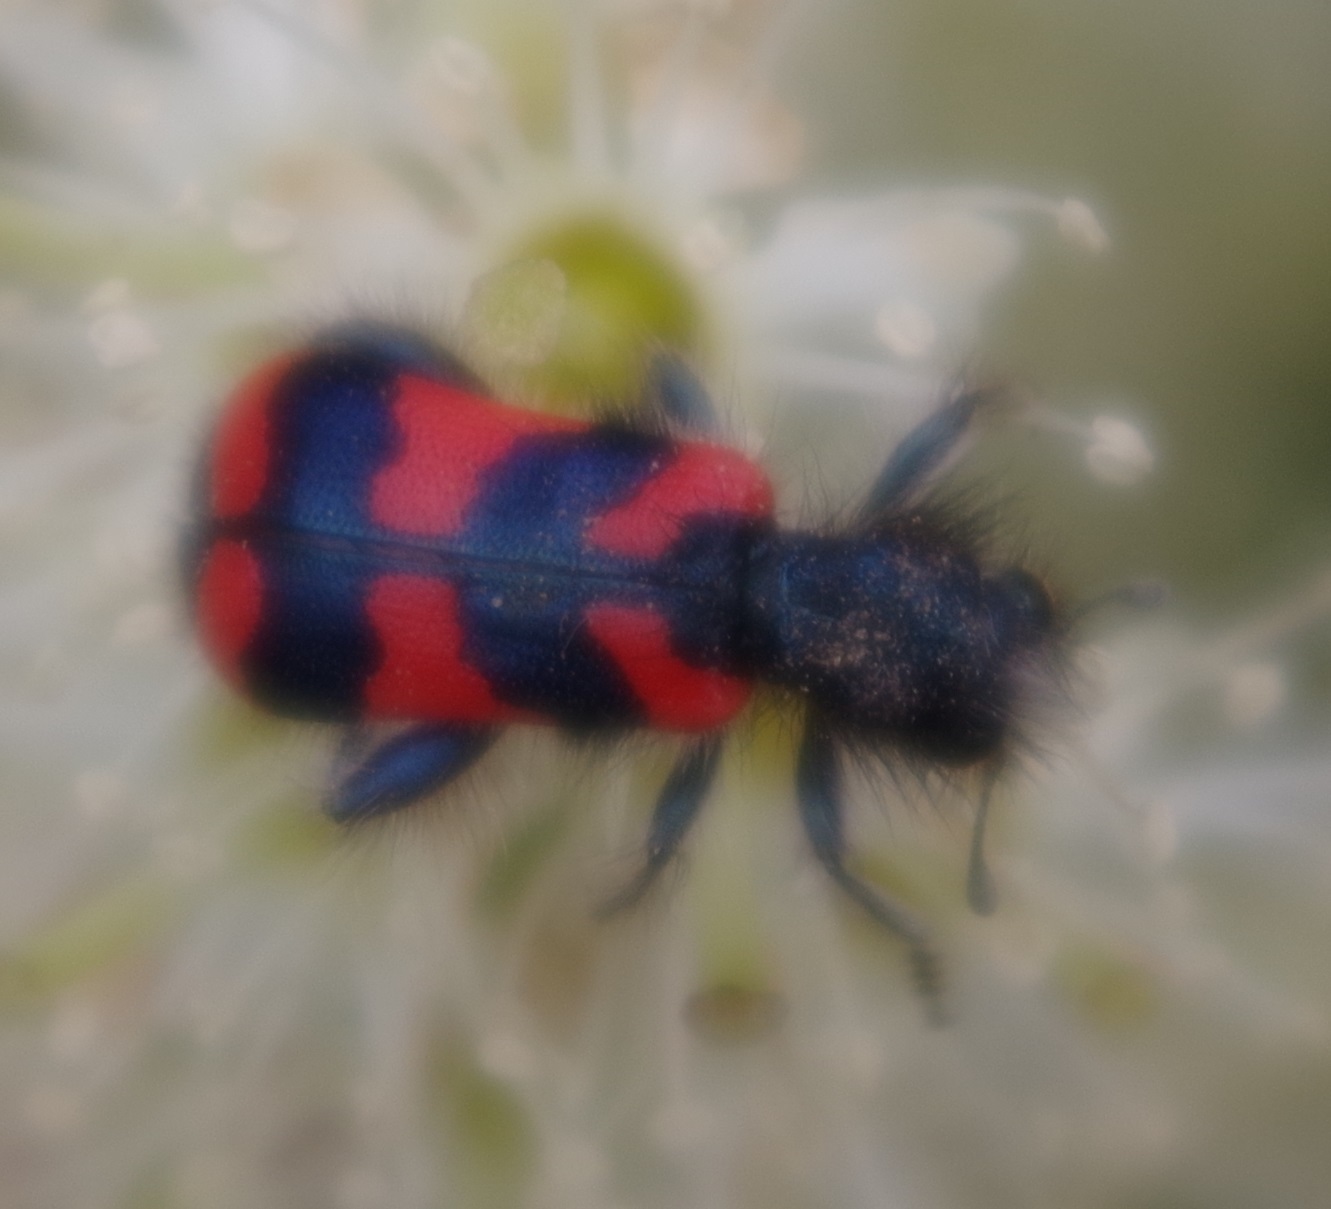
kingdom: Animalia
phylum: Arthropoda
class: Insecta
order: Coleoptera
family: Cleridae
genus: Trichodes
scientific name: Trichodes alvearius
